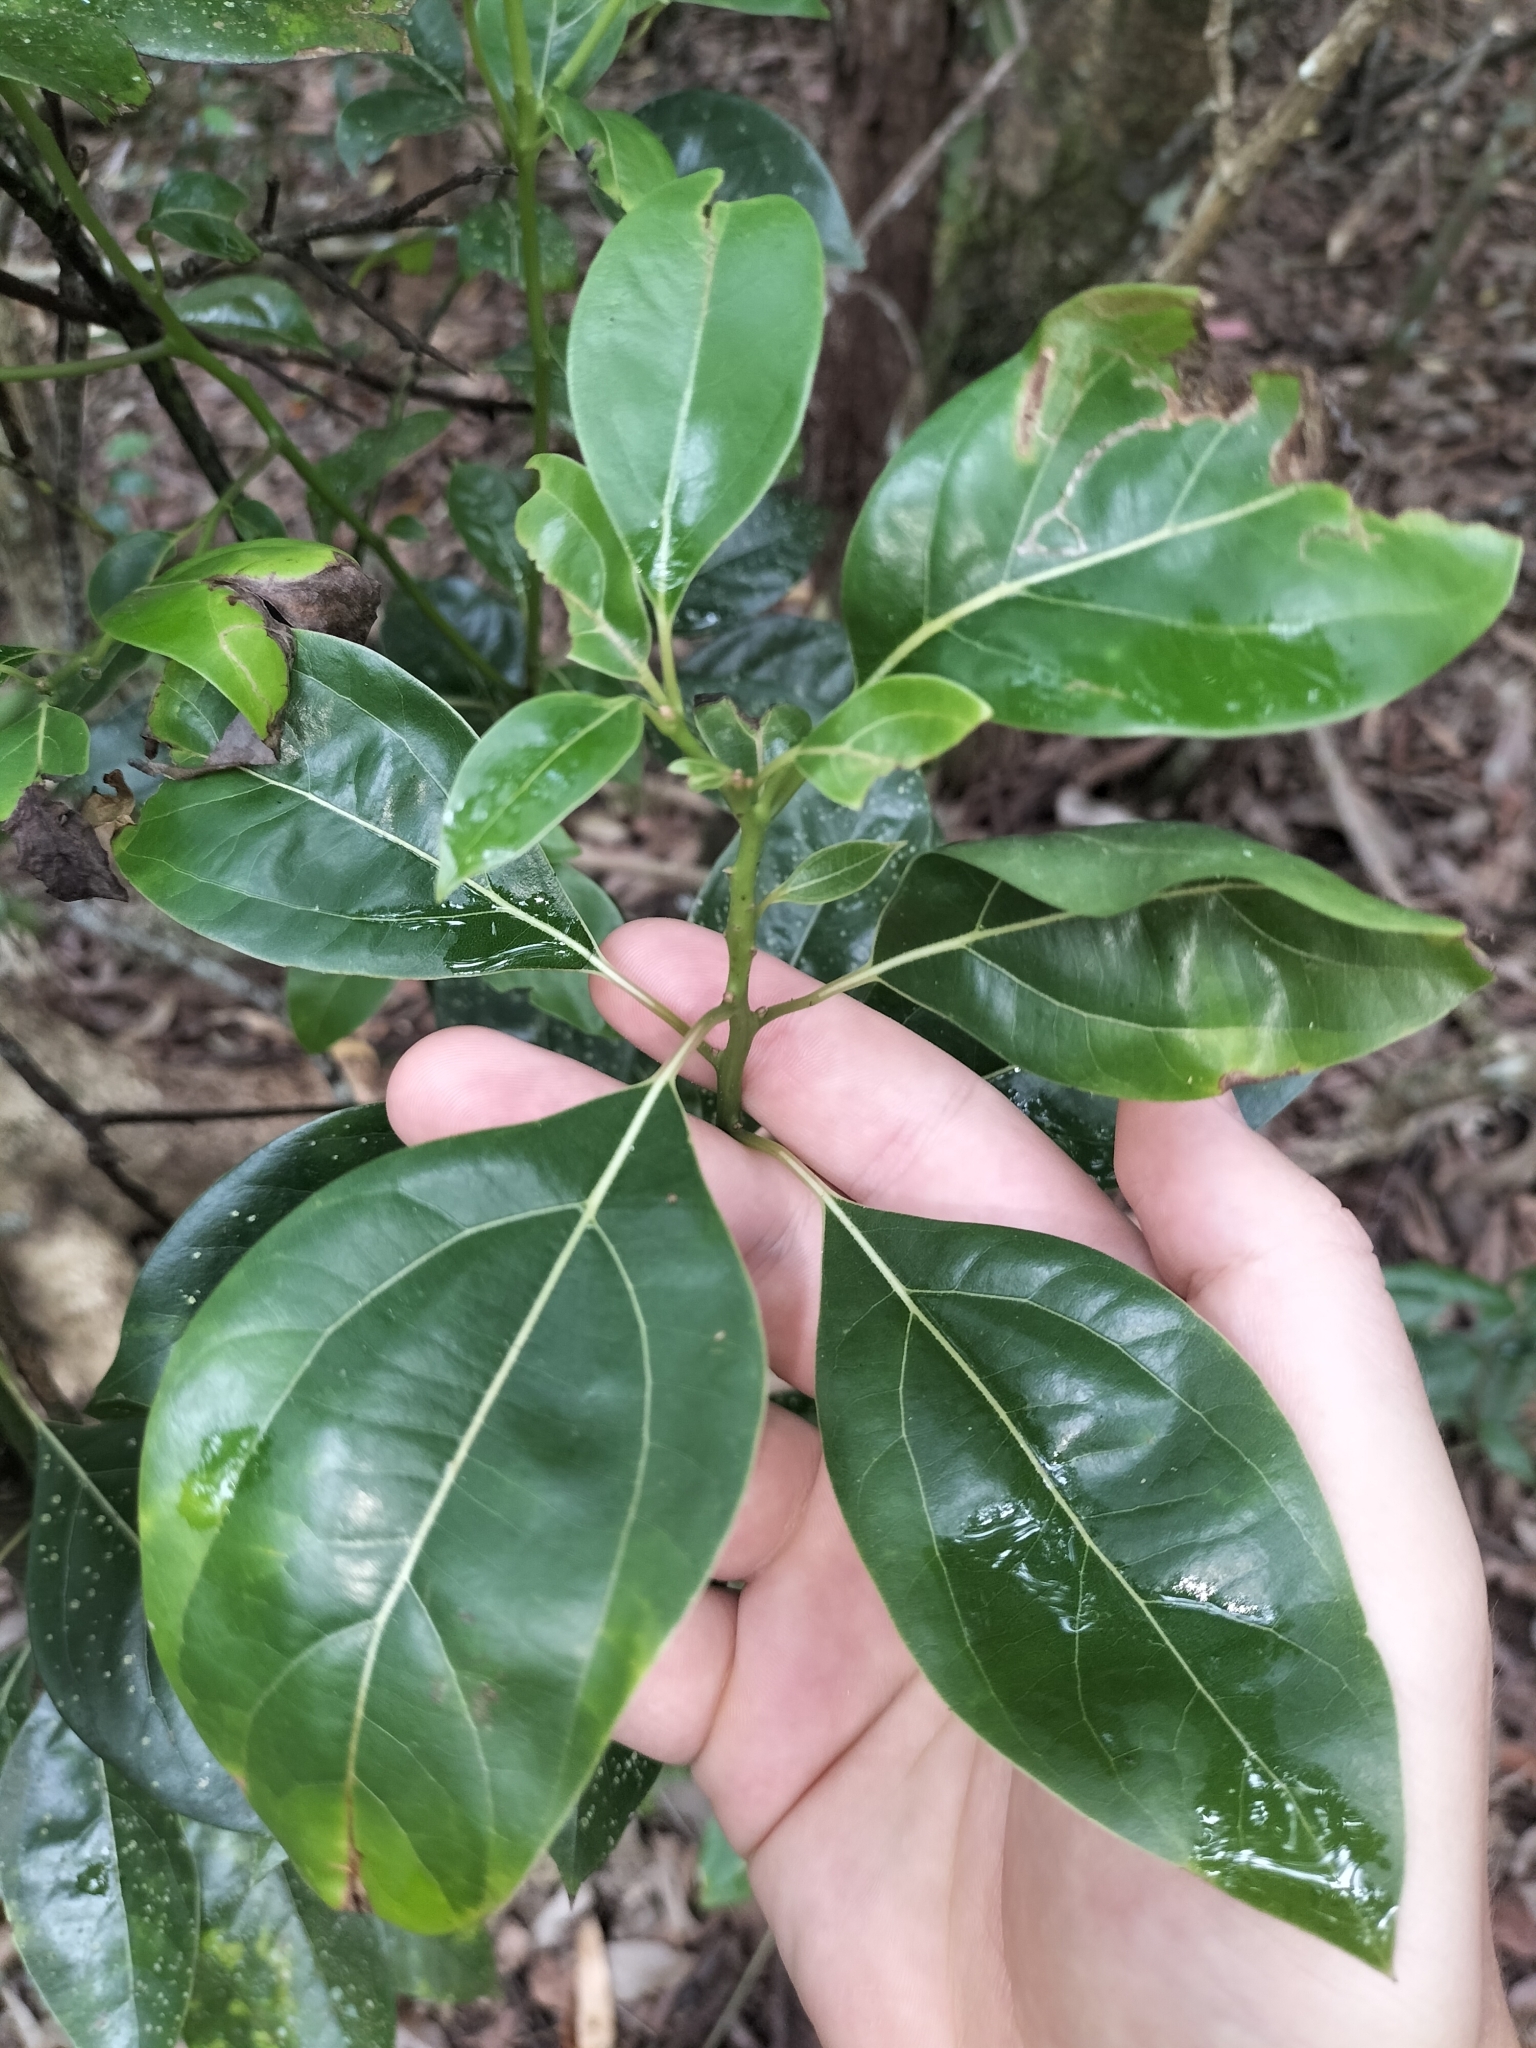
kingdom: Plantae
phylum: Tracheophyta
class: Magnoliopsida
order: Laurales
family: Lauraceae
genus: Cinnamomum
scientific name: Cinnamomum camphora
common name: Camphortree
